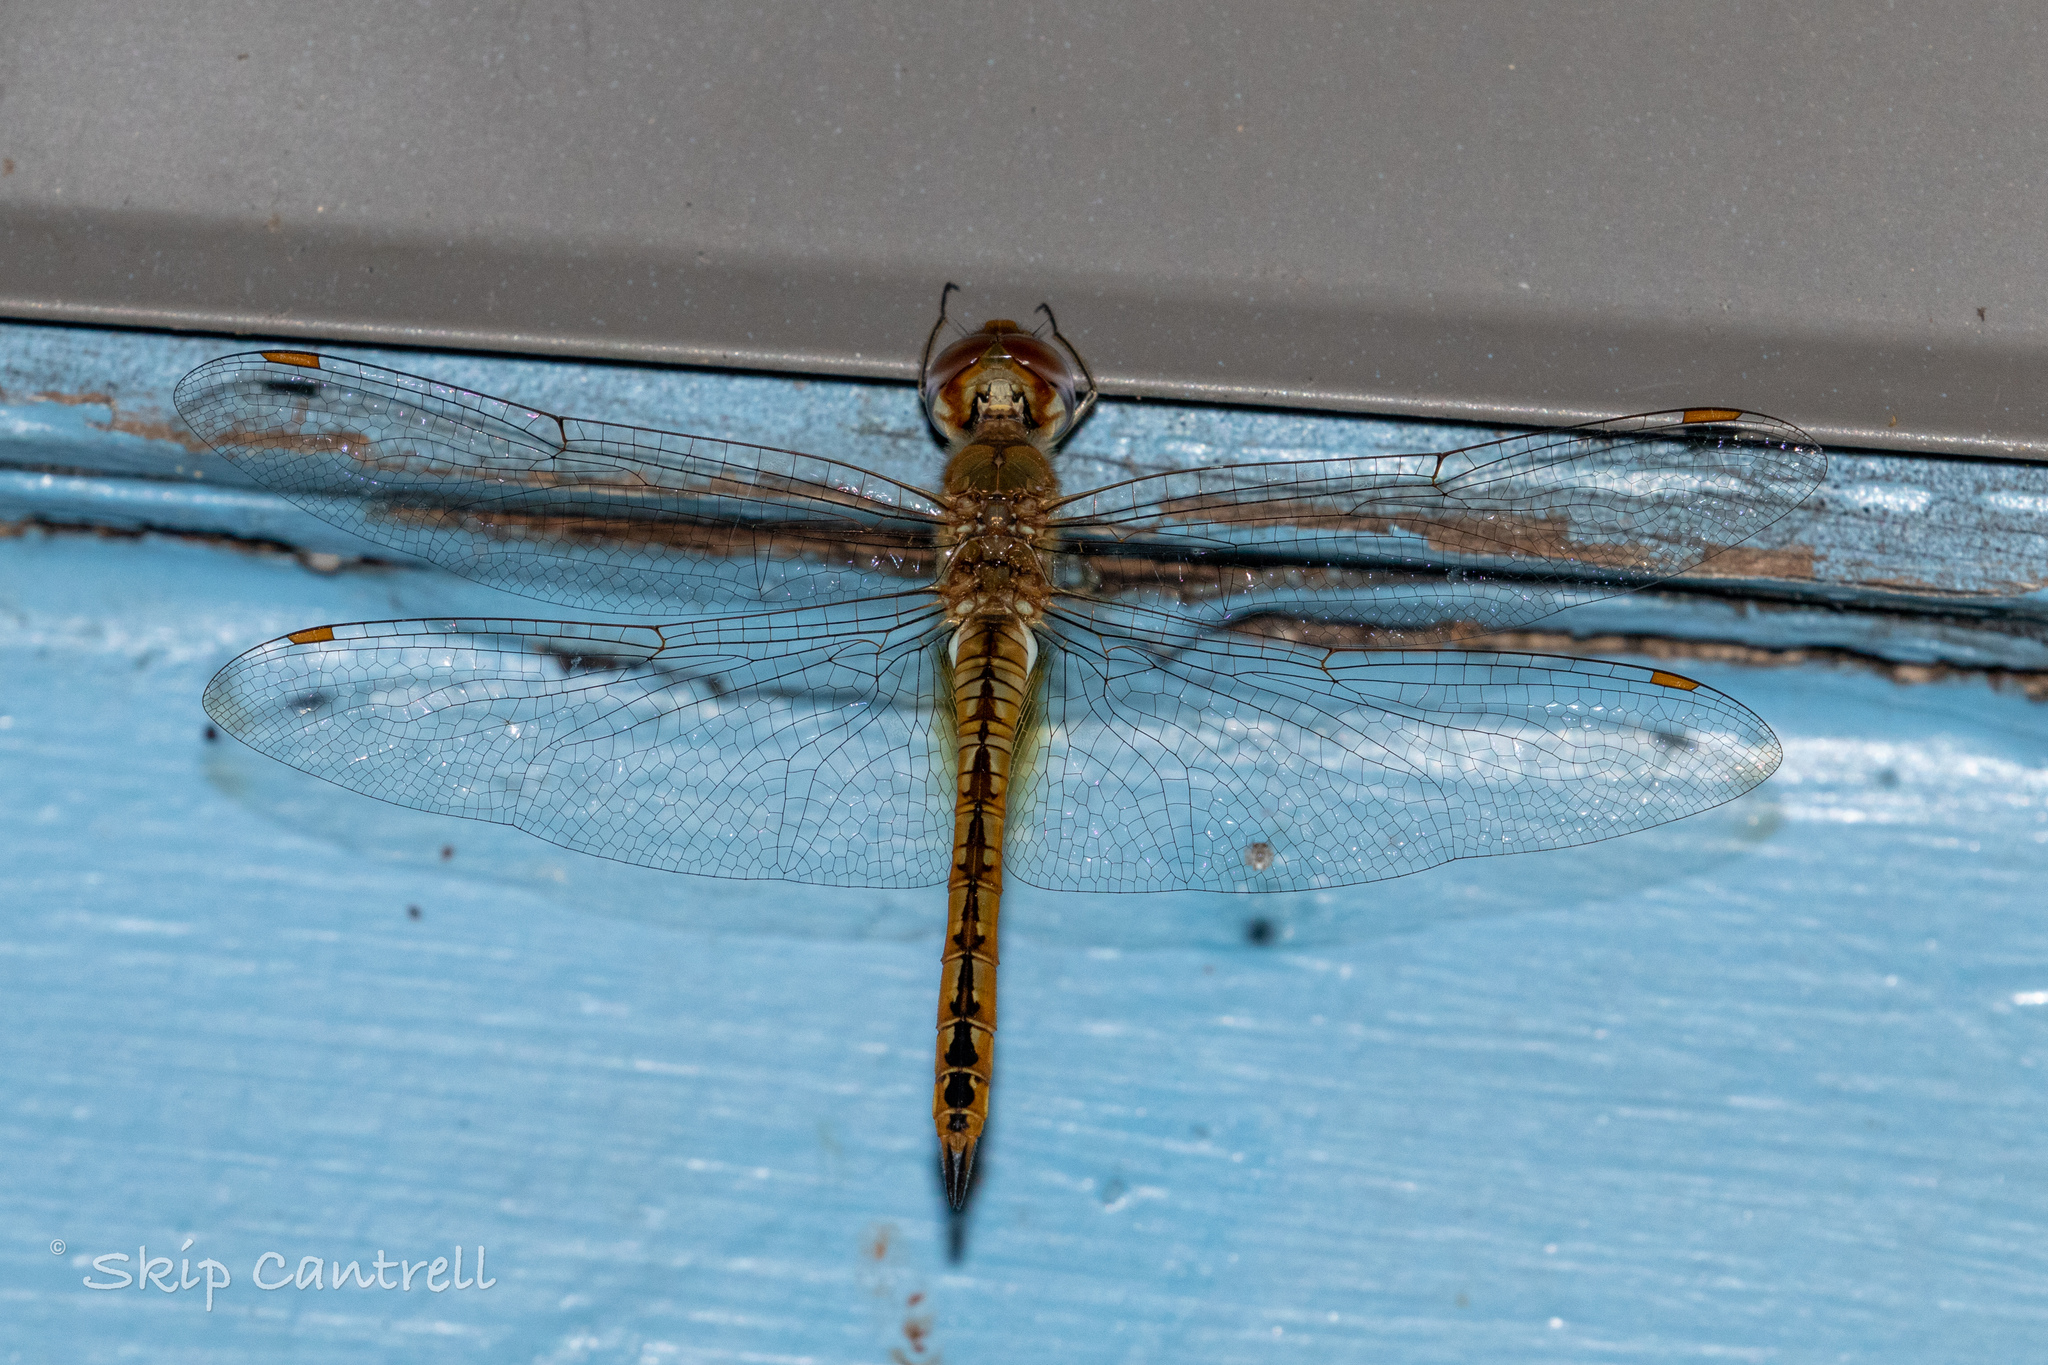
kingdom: Animalia
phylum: Arthropoda
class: Insecta
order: Odonata
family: Libellulidae
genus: Pantala
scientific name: Pantala flavescens
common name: Wandering glider
